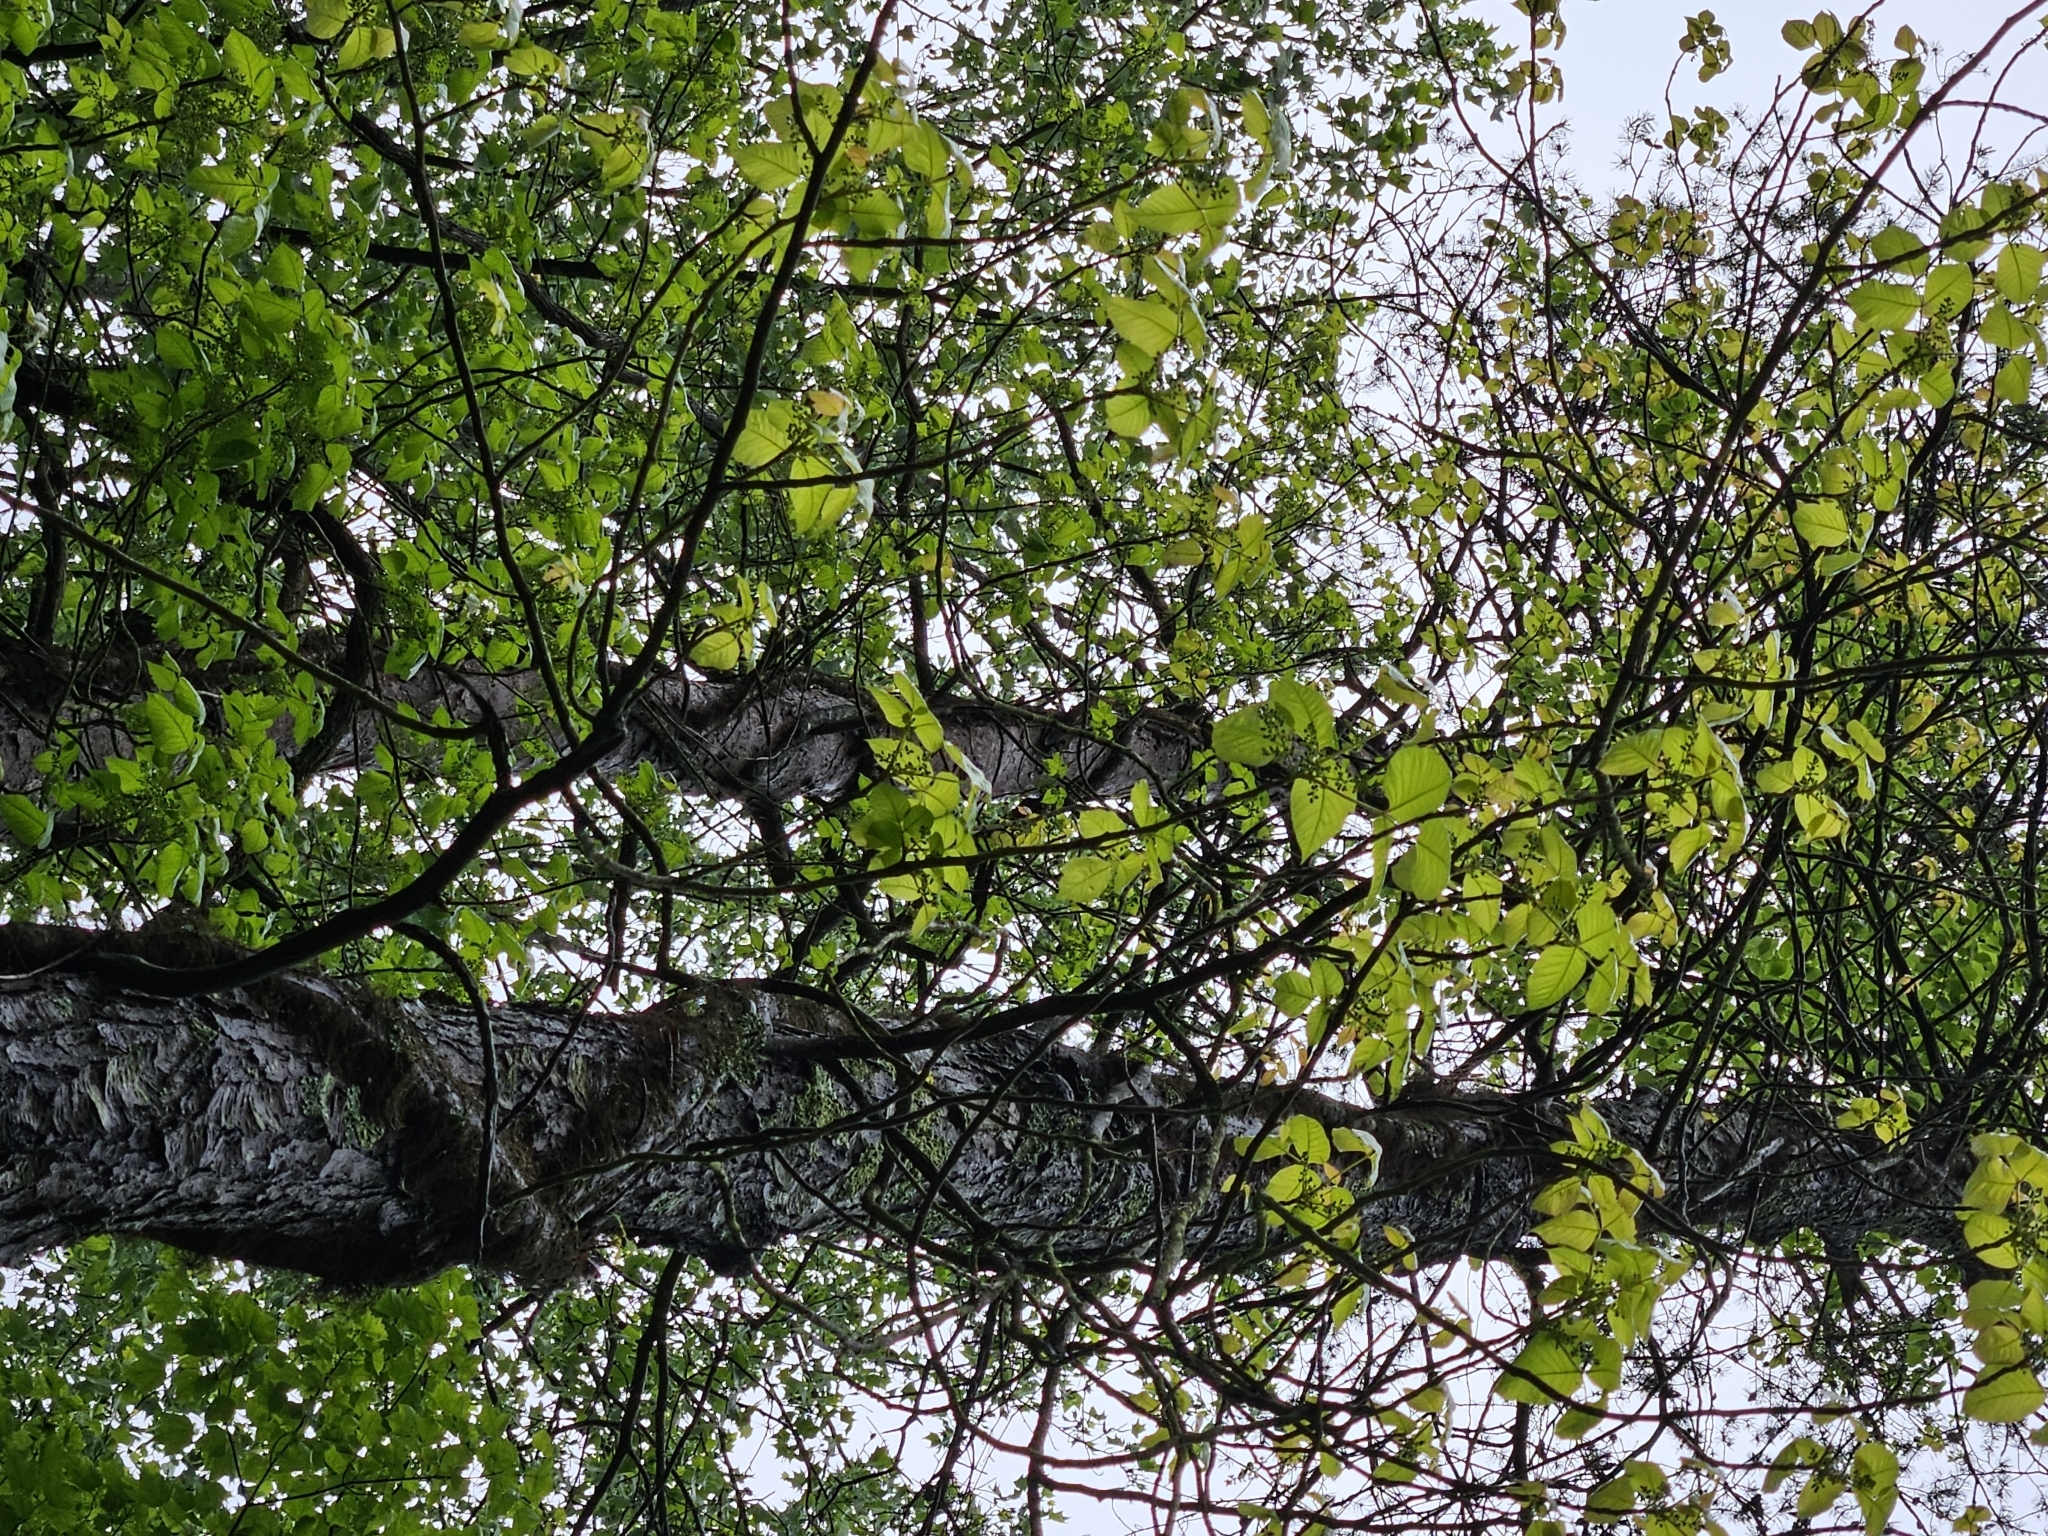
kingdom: Plantae
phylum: Tracheophyta
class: Magnoliopsida
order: Sapindales
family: Anacardiaceae
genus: Toxicodendron
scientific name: Toxicodendron radicans
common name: Poison ivy
